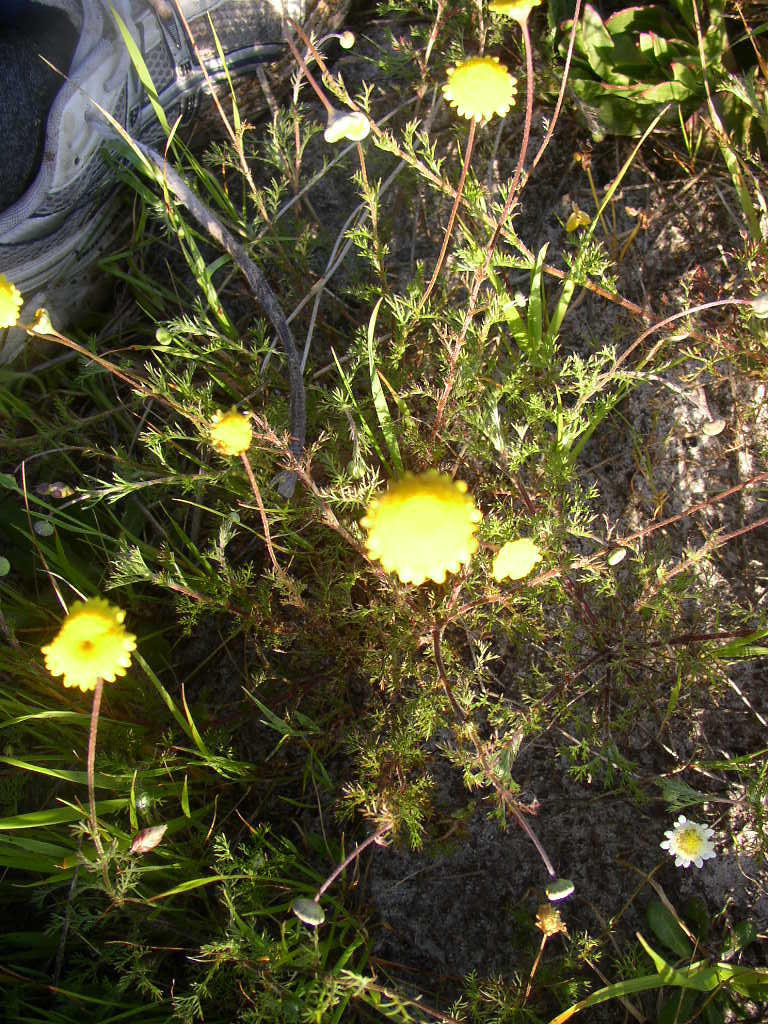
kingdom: Plantae
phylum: Tracheophyta
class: Magnoliopsida
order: Asterales
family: Asteraceae
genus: Cotula
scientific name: Cotula pruinosa
